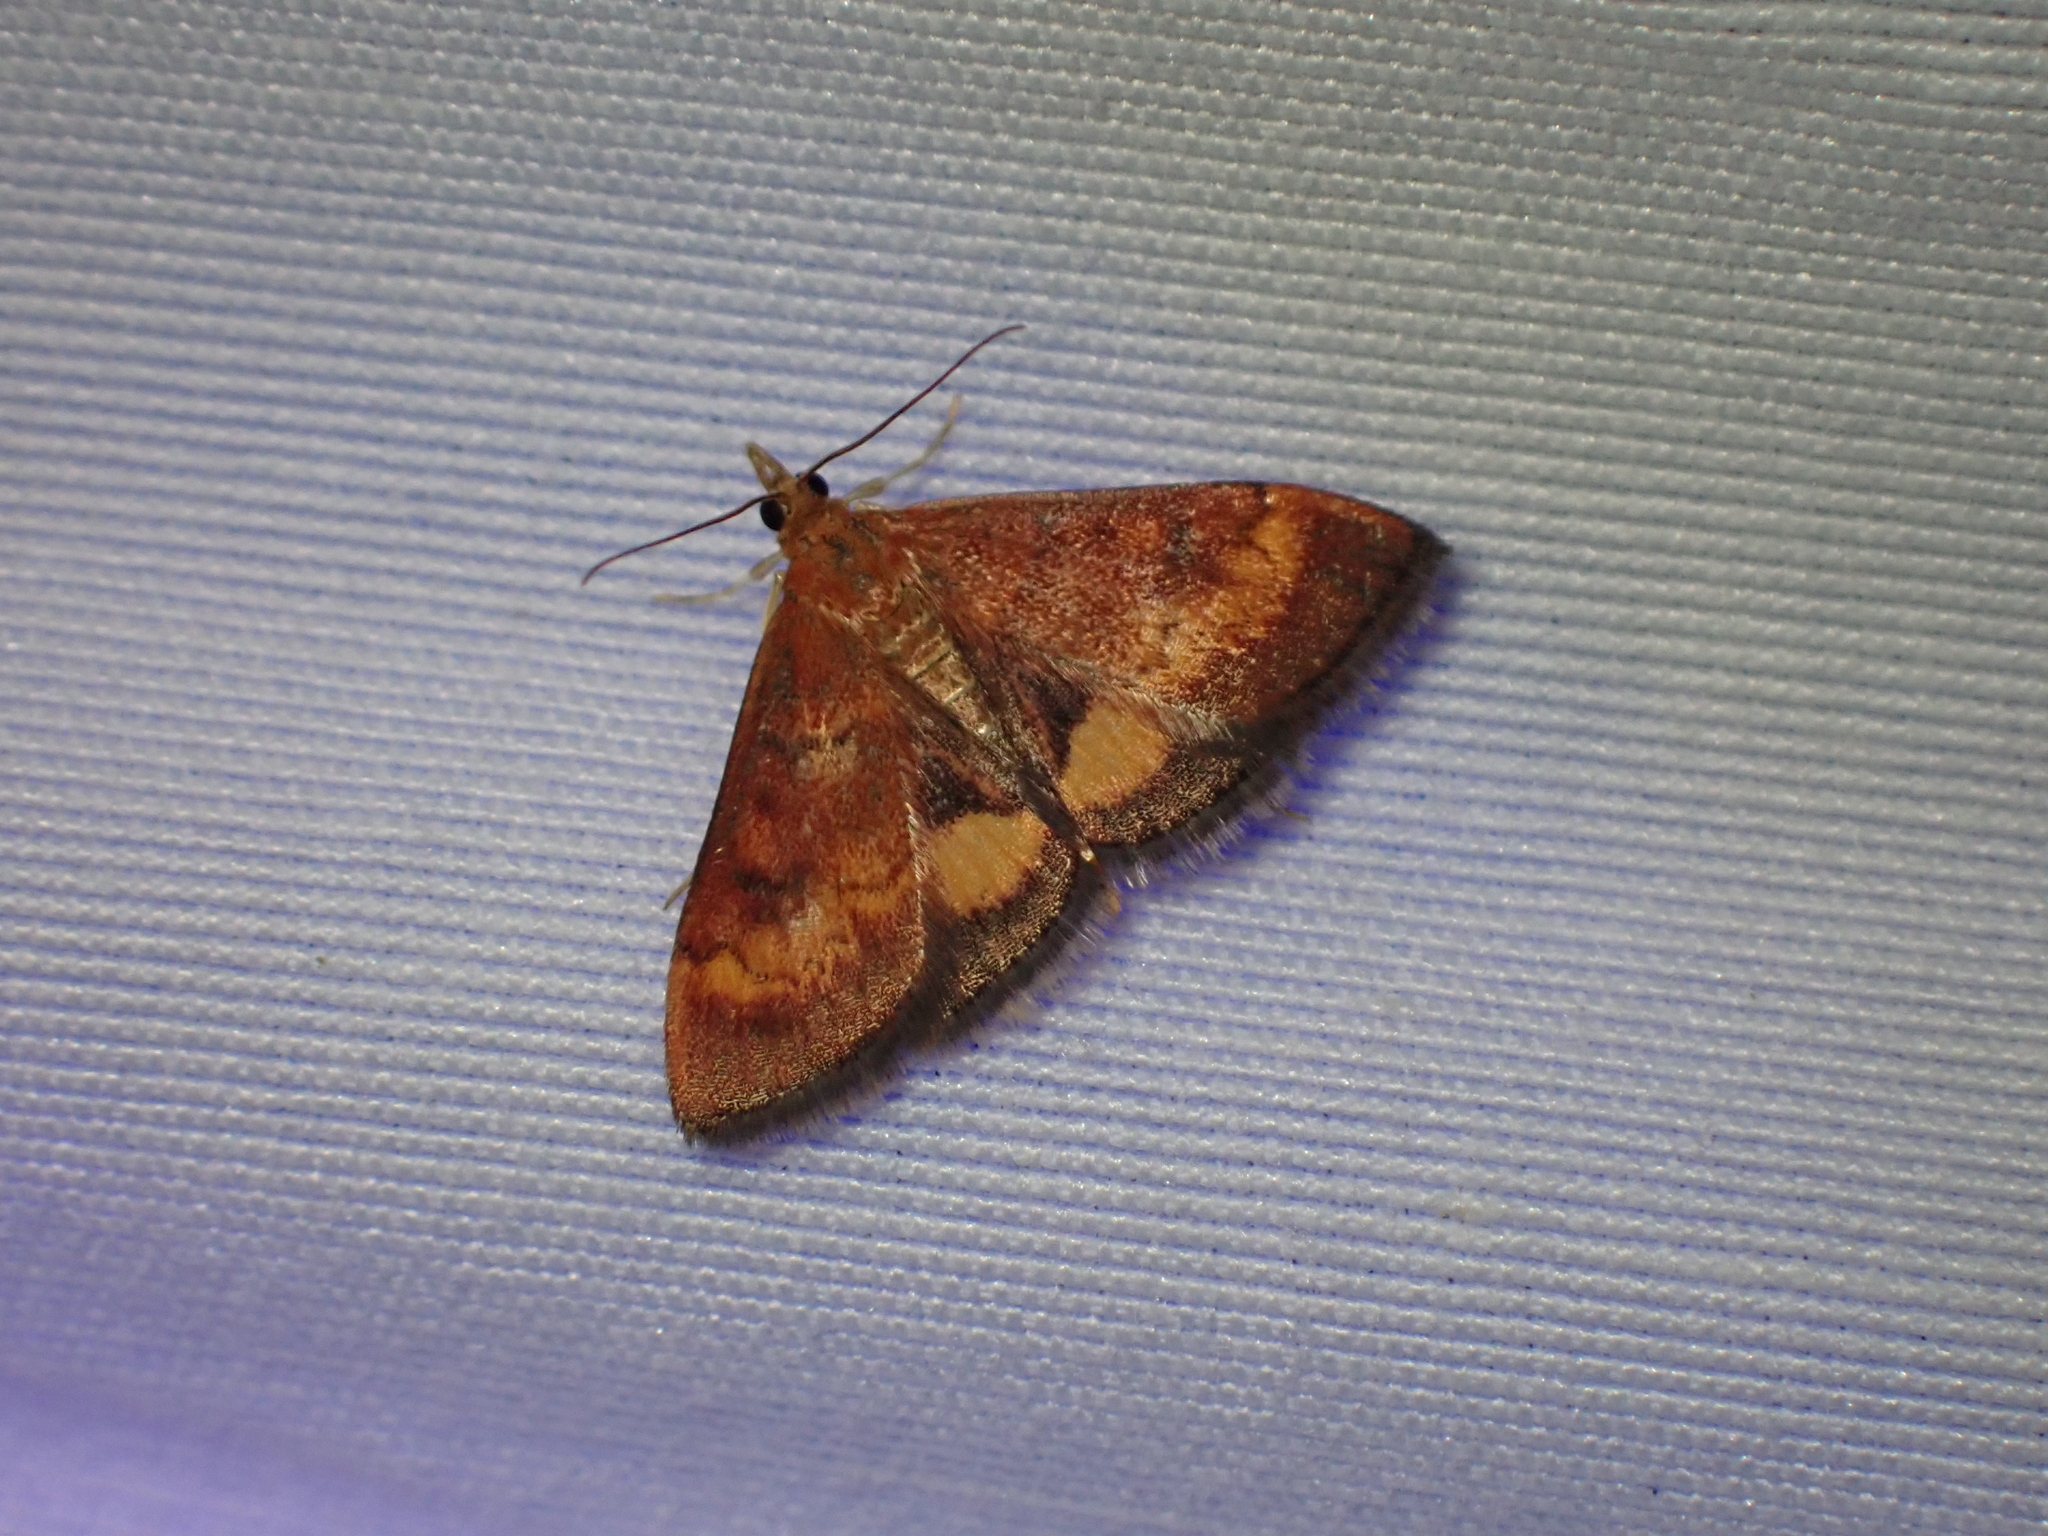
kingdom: Animalia
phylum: Arthropoda
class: Insecta
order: Lepidoptera
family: Crambidae
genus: Pyrausta
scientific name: Pyrausta californicalis
